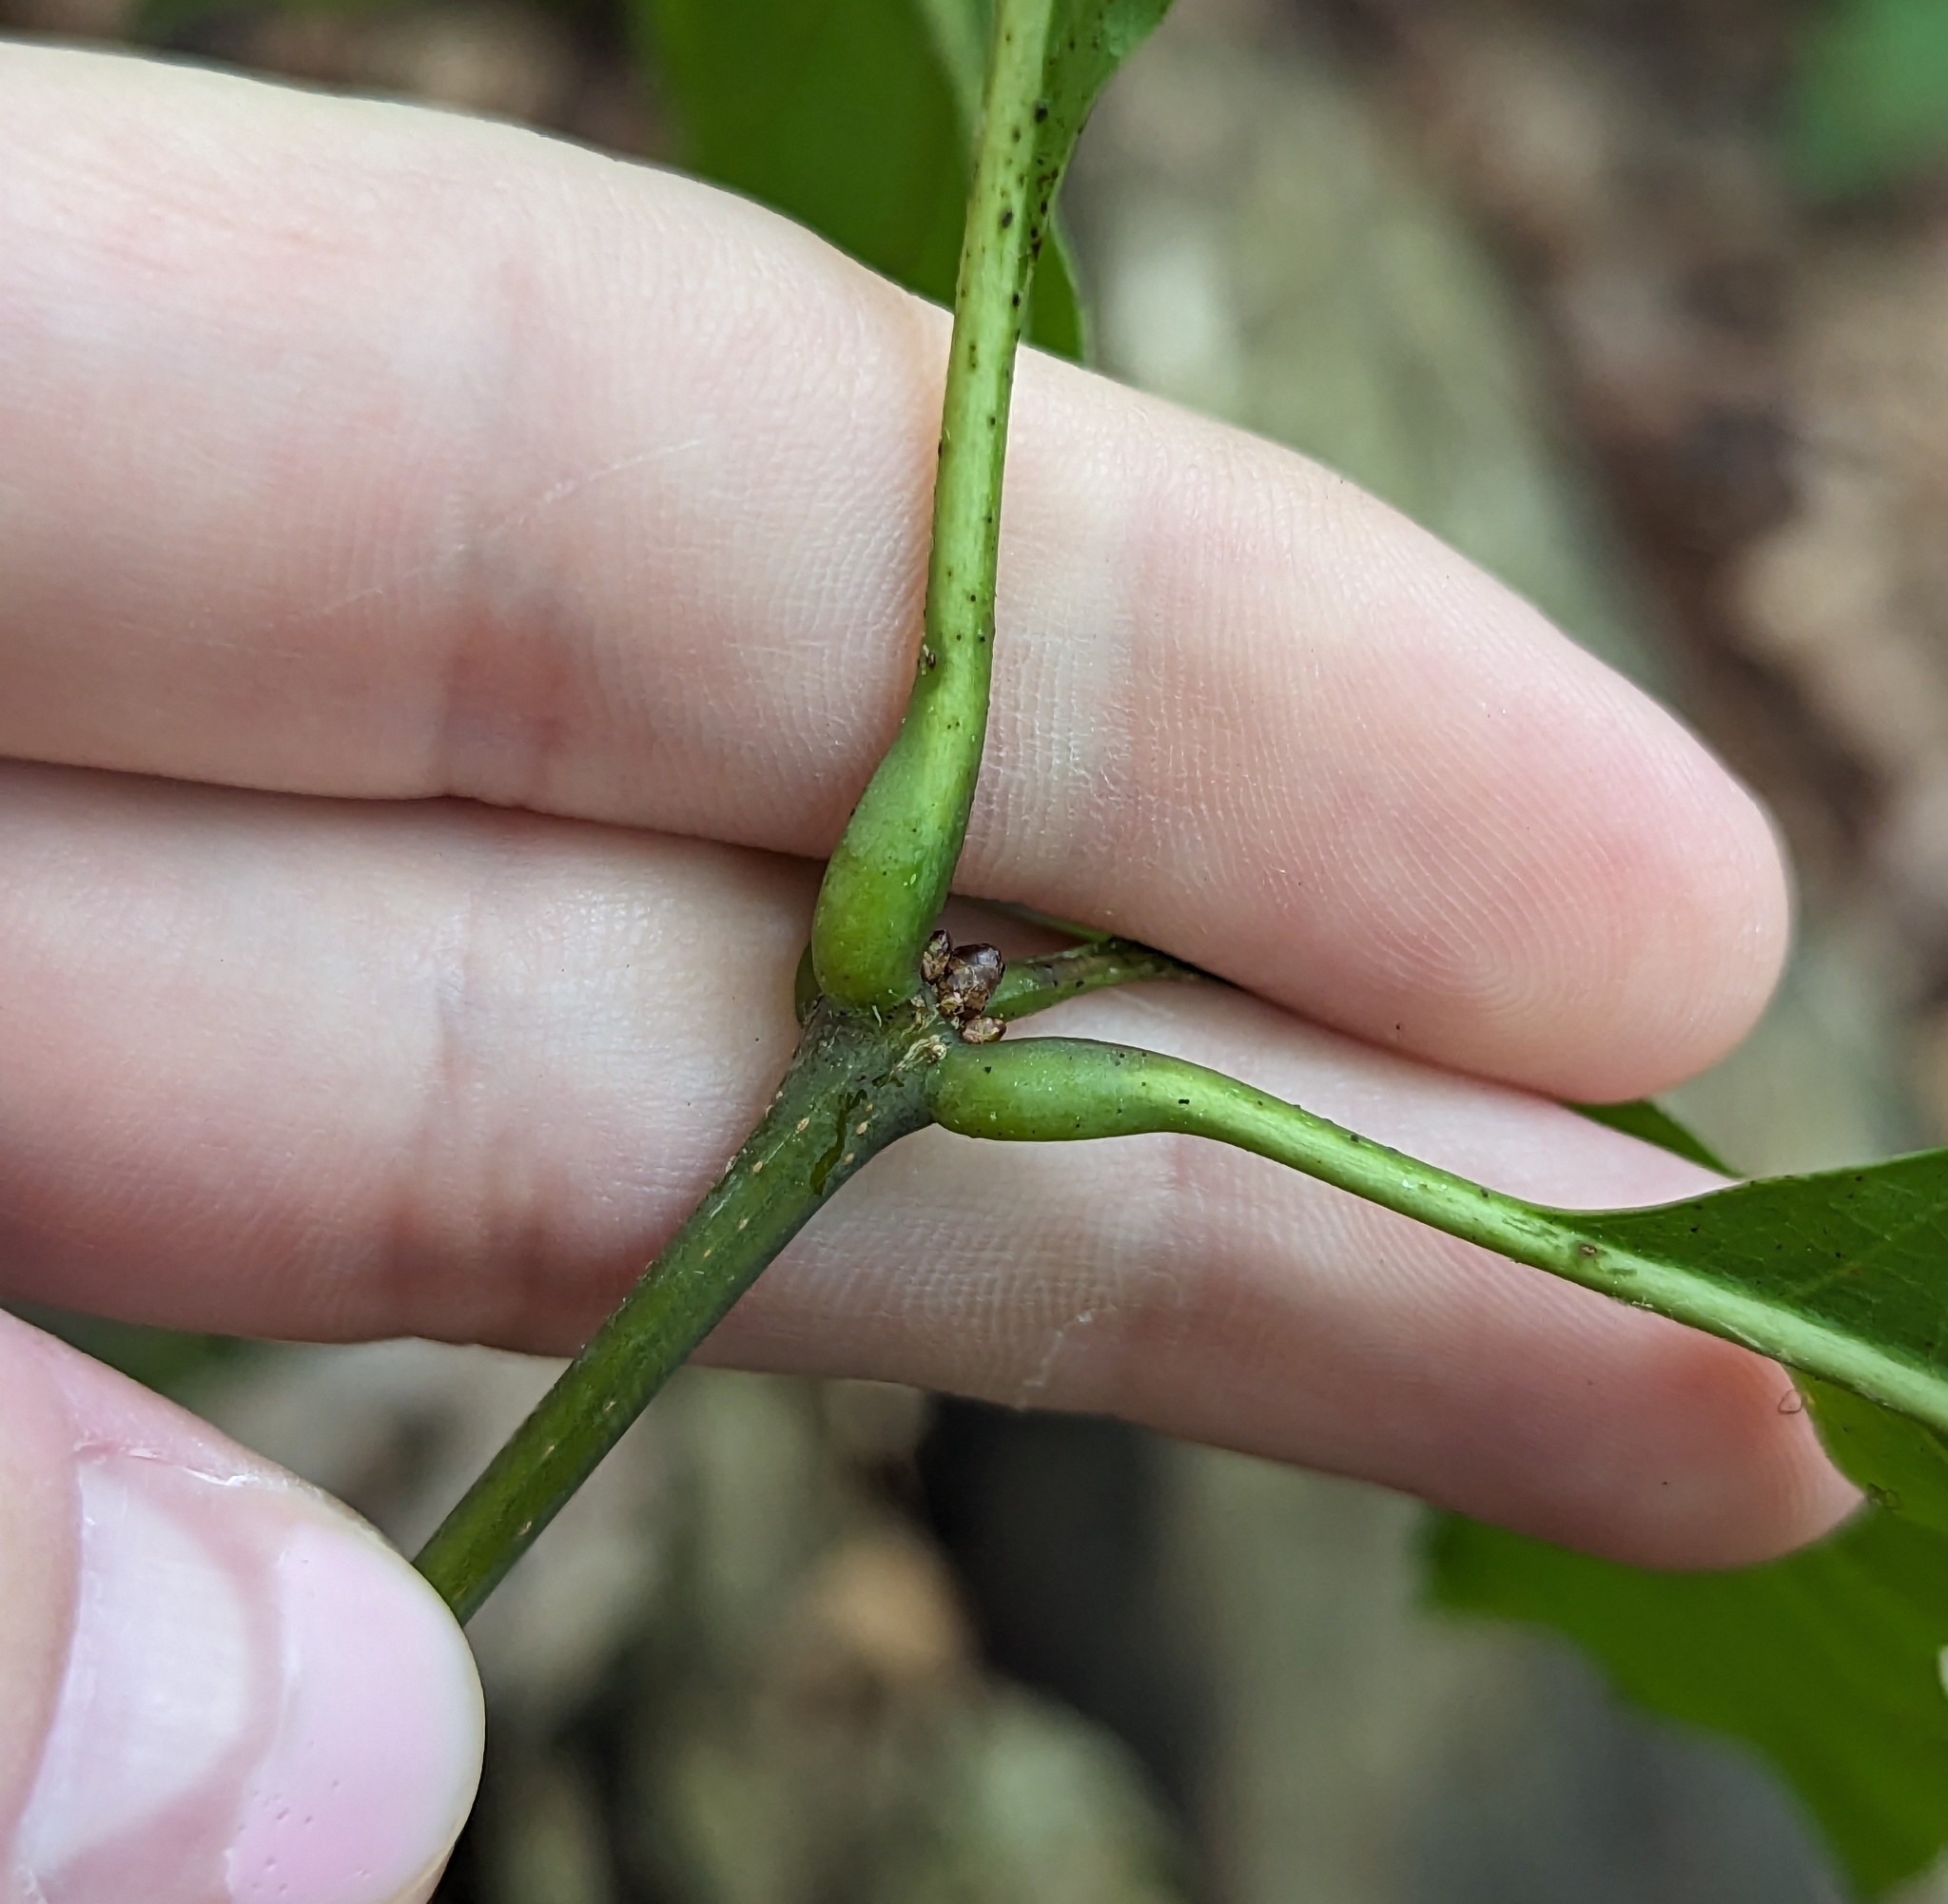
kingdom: Plantae
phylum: Tracheophyta
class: Magnoliopsida
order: Fagales
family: Fagaceae
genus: Quercus
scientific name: Quercus rubra
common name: Red oak
